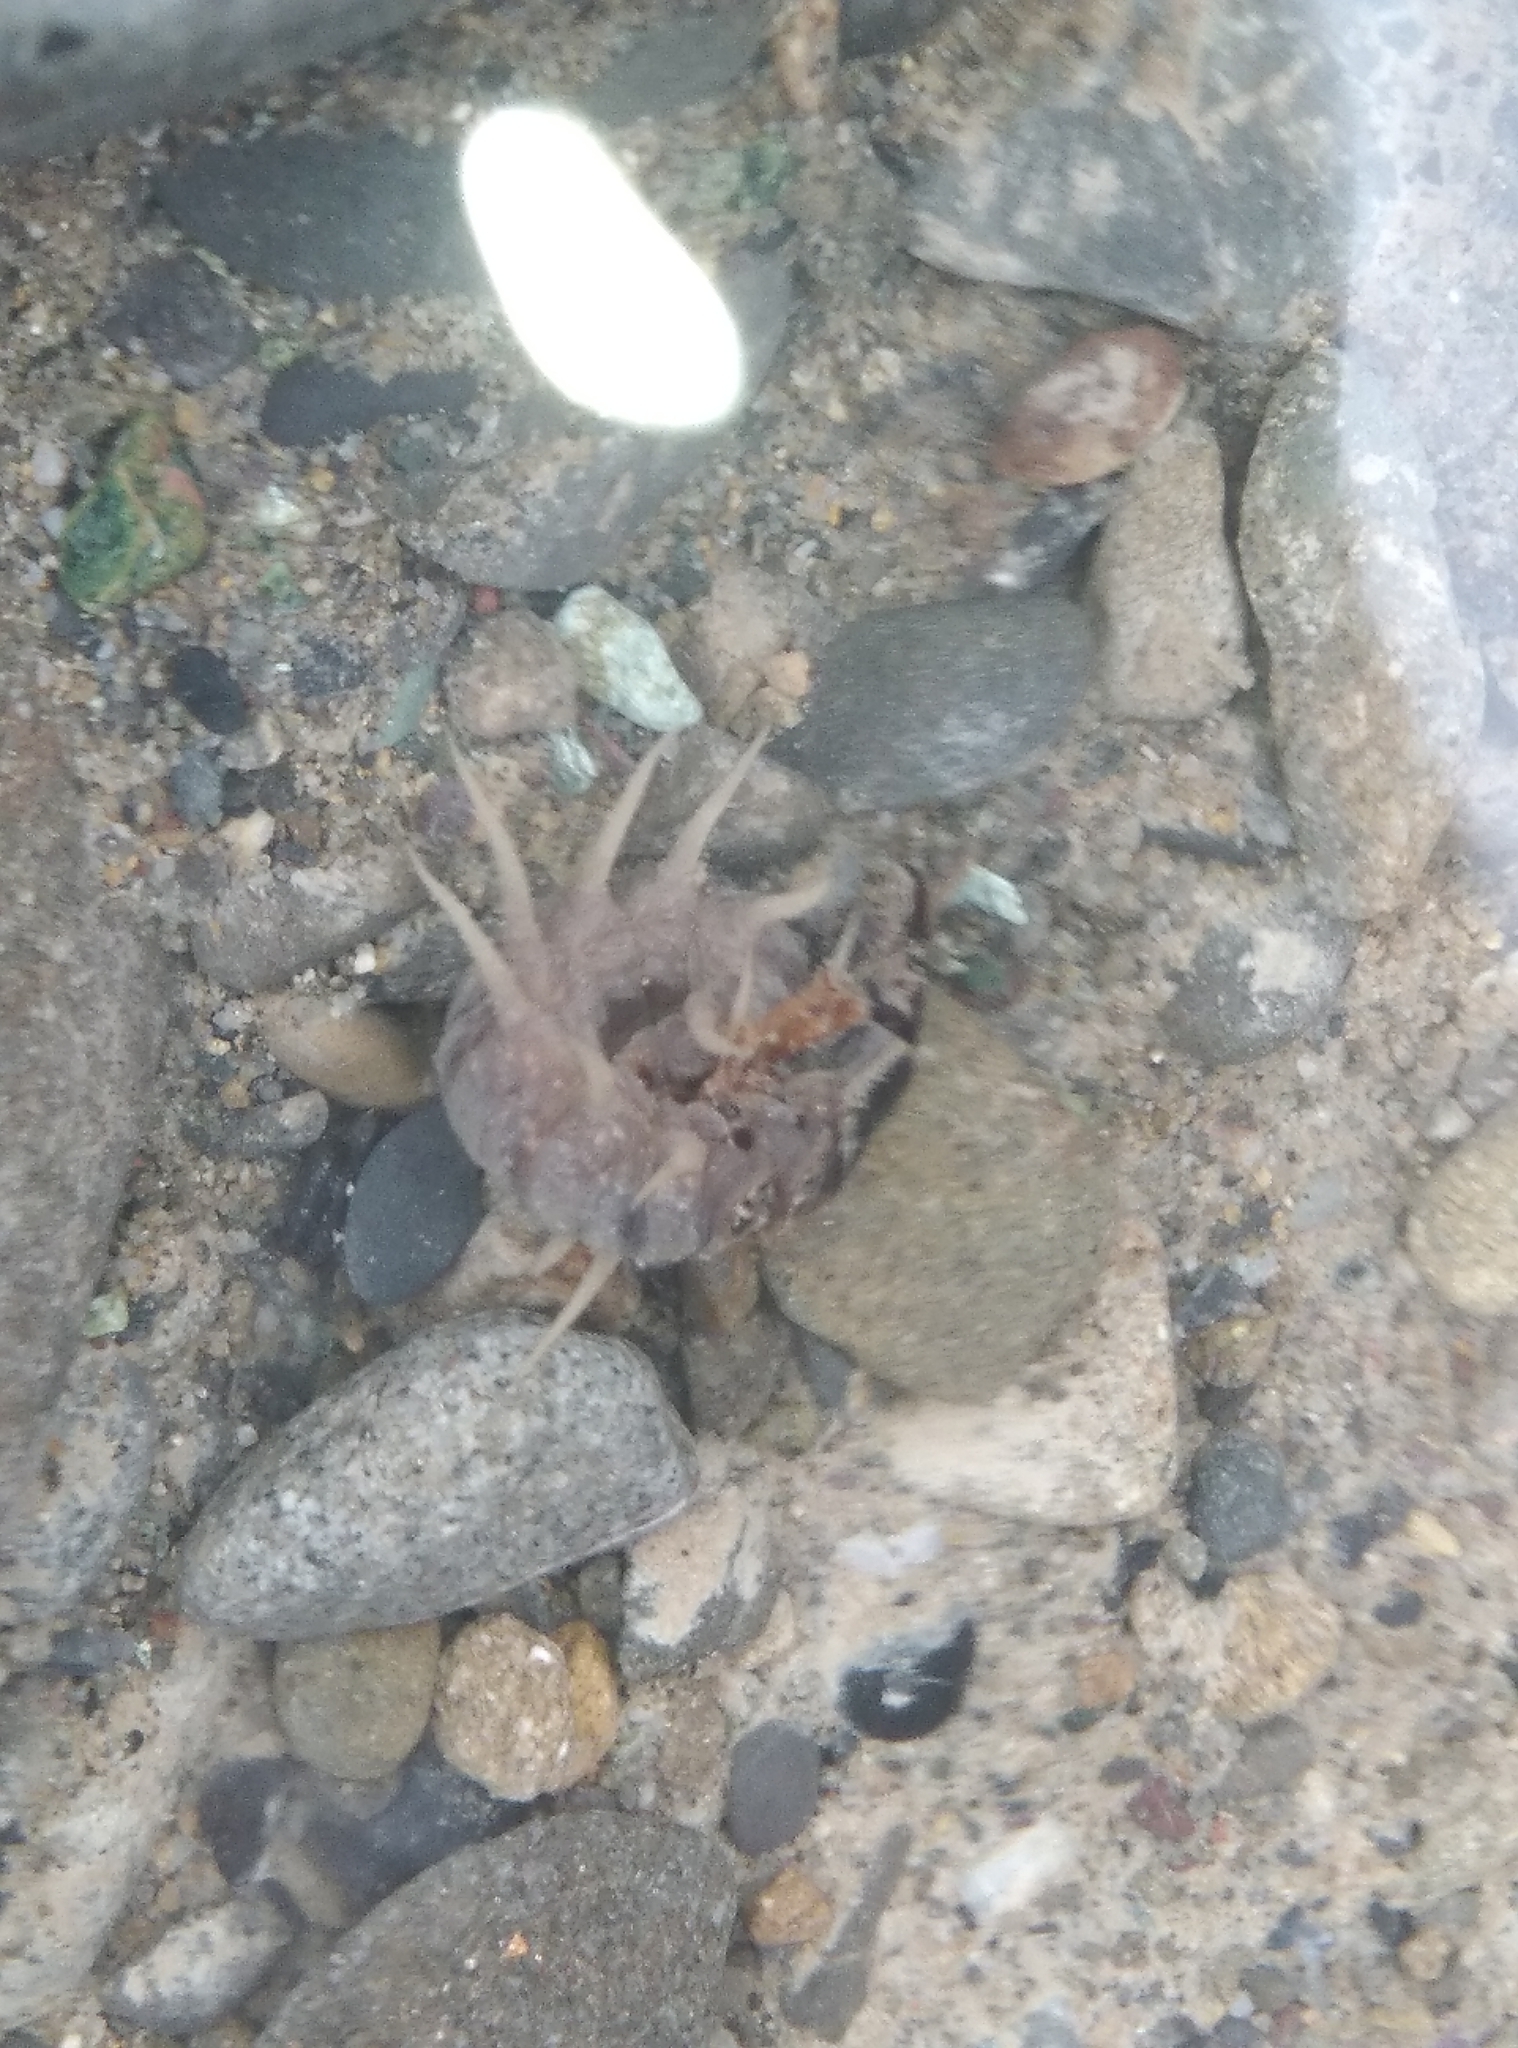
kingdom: Animalia
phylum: Arthropoda
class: Insecta
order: Megaloptera
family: Corydalidae
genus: Archichauliodes
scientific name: Archichauliodes diversus
